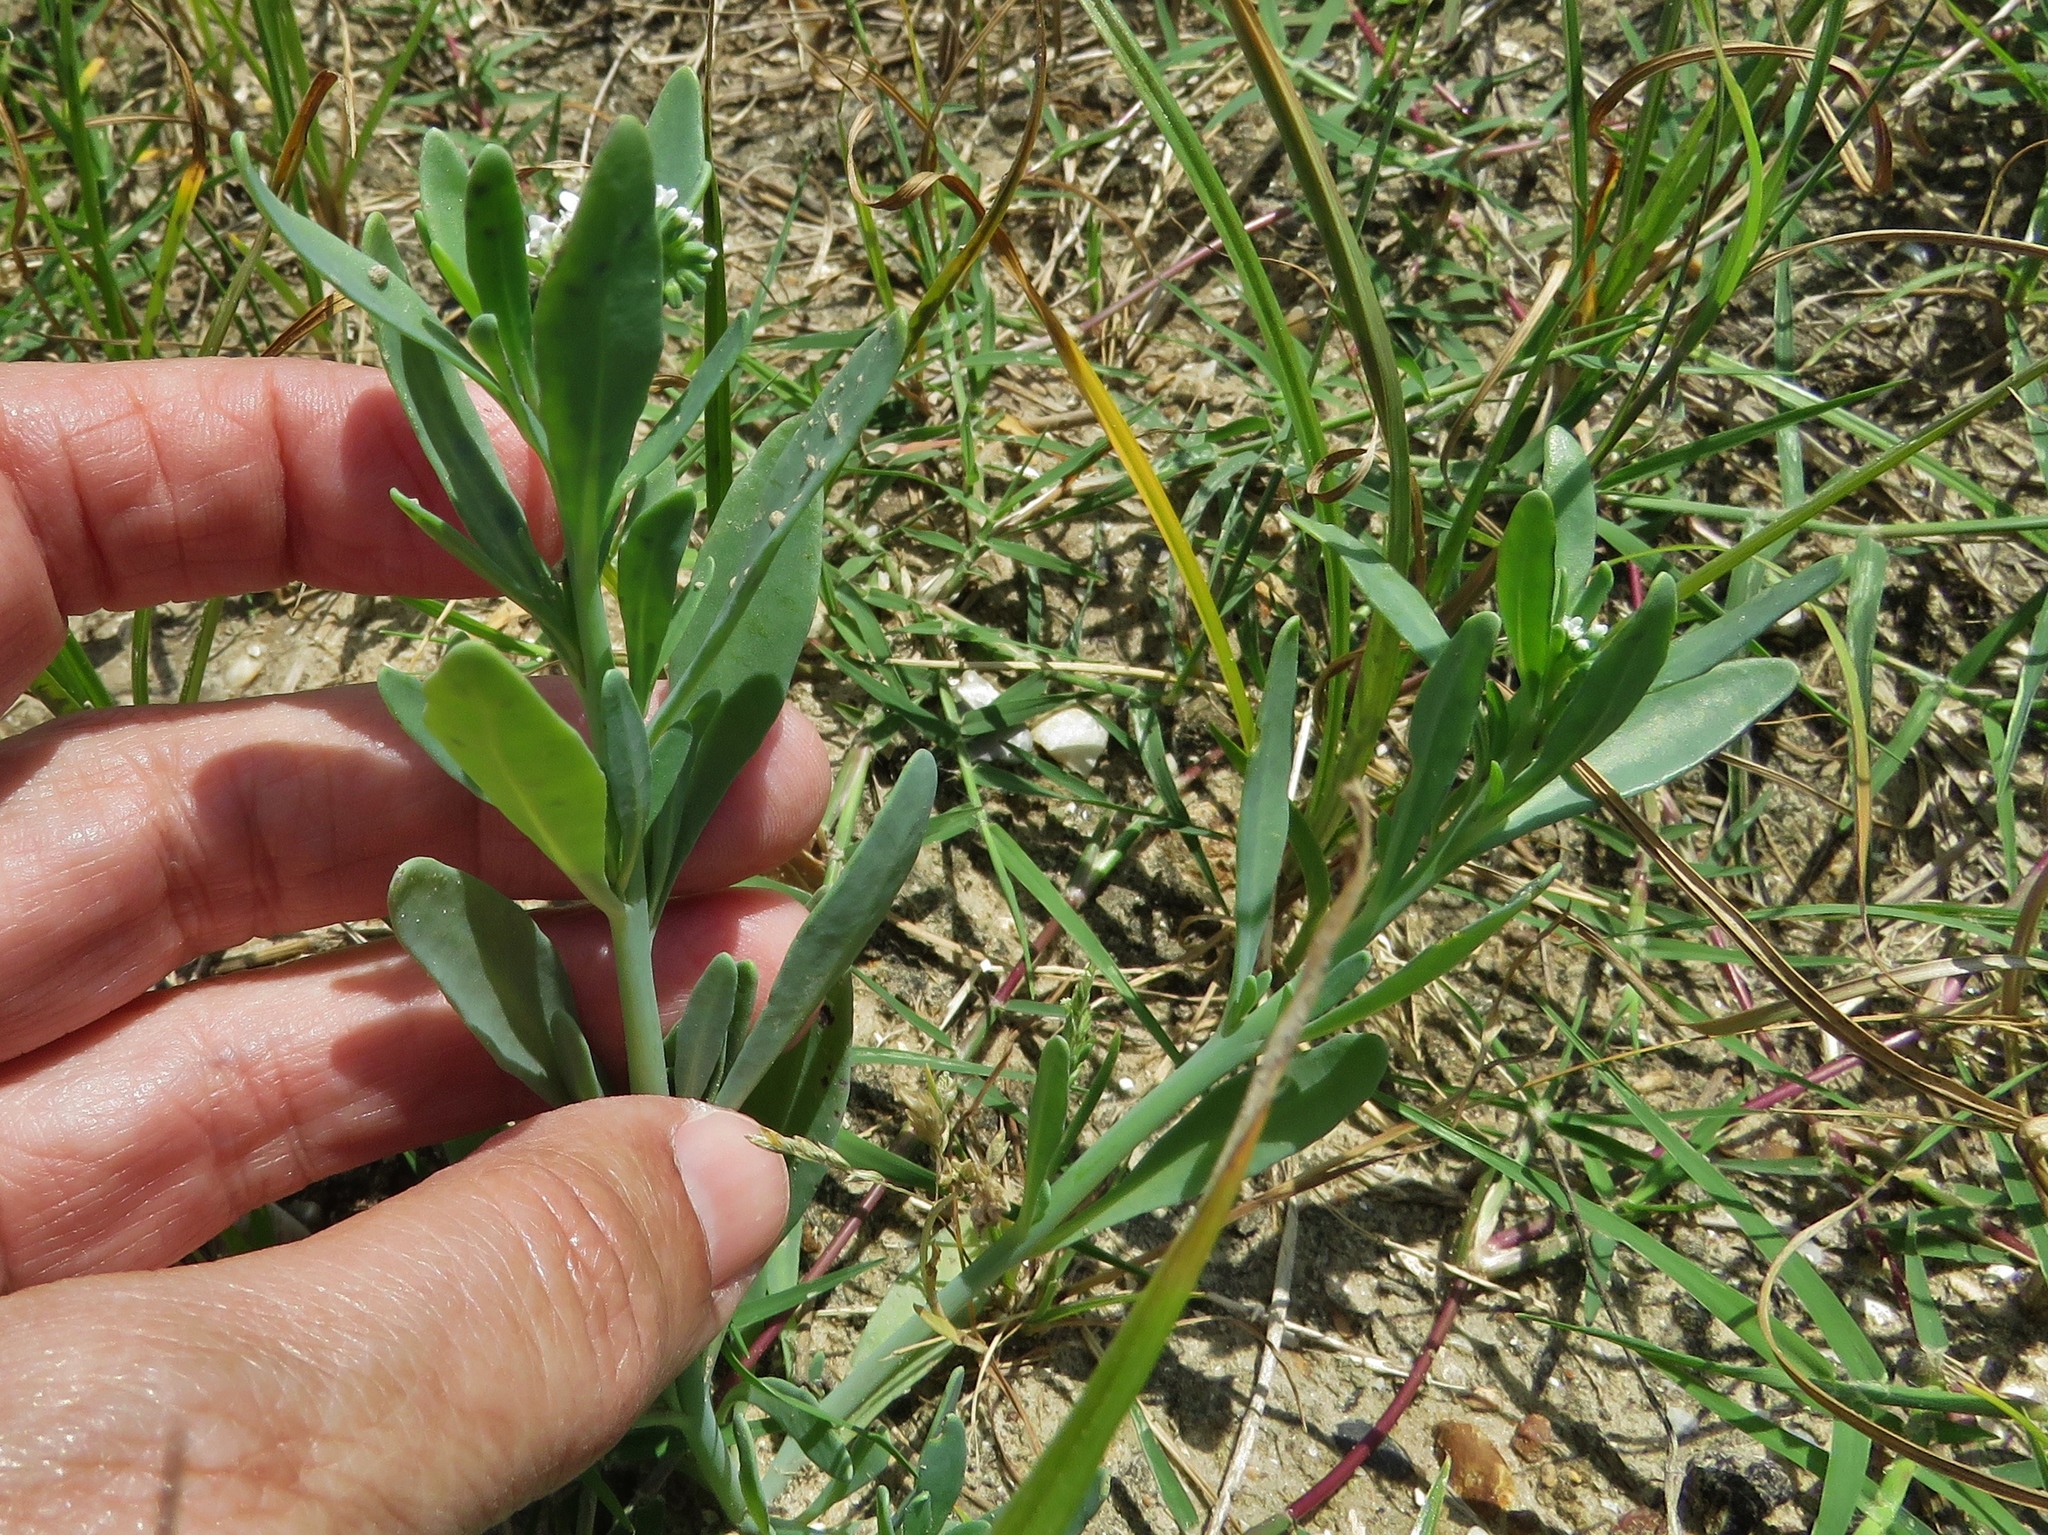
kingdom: Plantae
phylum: Tracheophyta
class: Magnoliopsida
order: Boraginales
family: Heliotropiaceae
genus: Heliotropium
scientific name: Heliotropium curassavicum
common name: Seaside heliotrope
